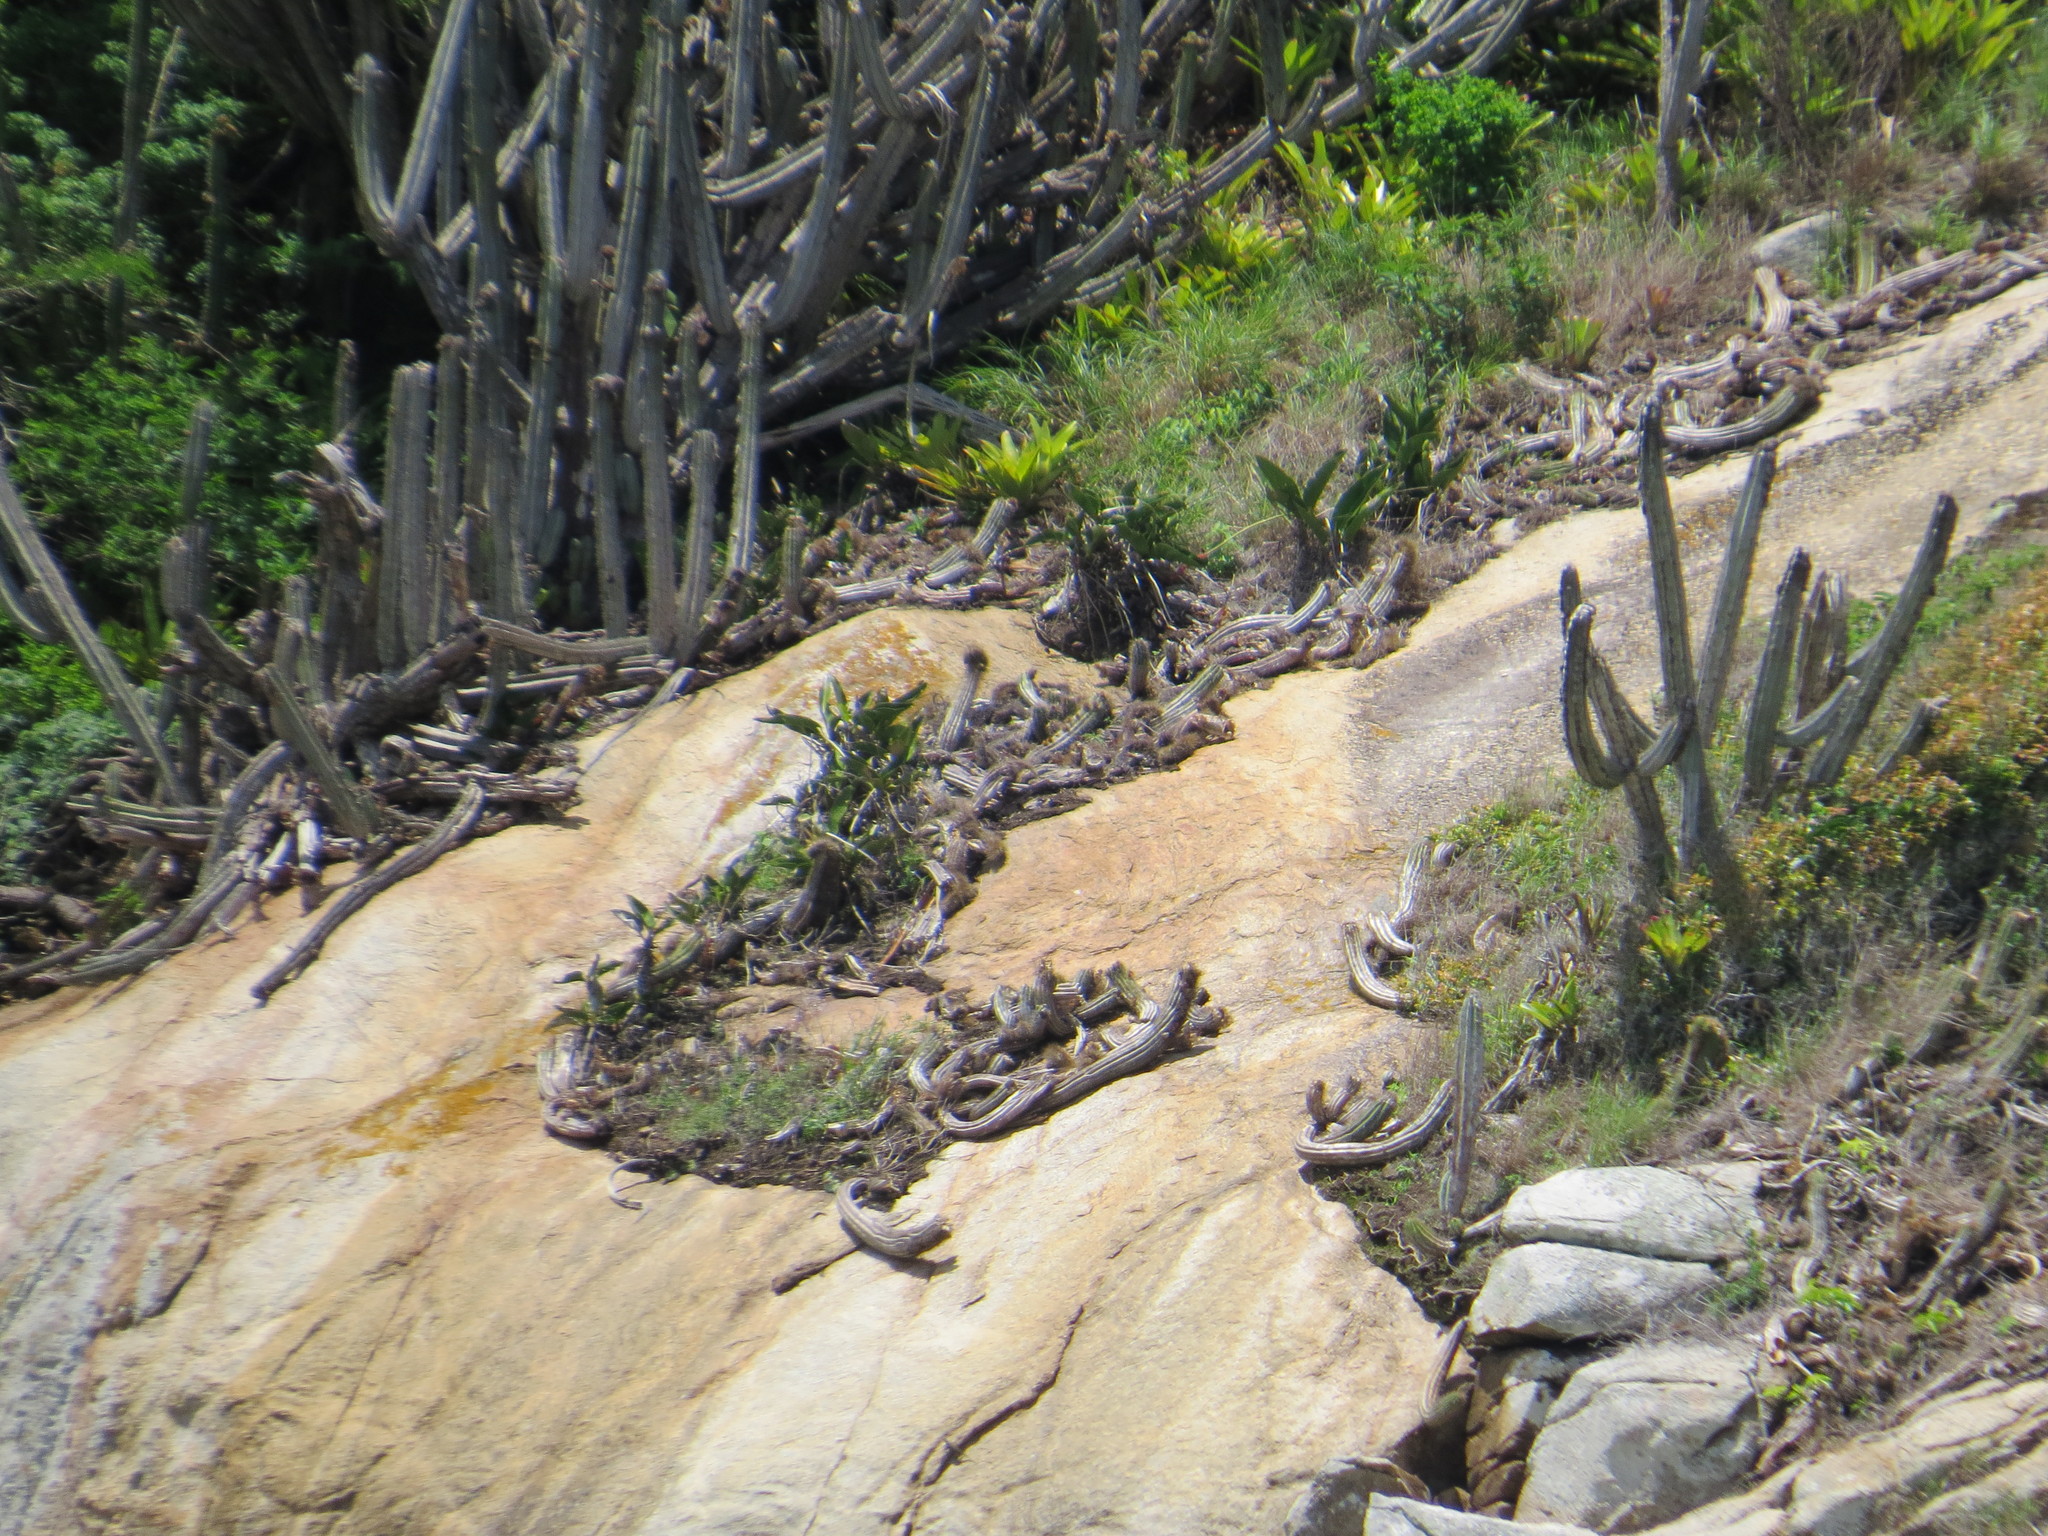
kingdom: Plantae
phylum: Tracheophyta
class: Magnoliopsida
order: Caryophyllales
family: Cactaceae
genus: Coleocephalocereus
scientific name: Coleocephalocereus fluminensis
